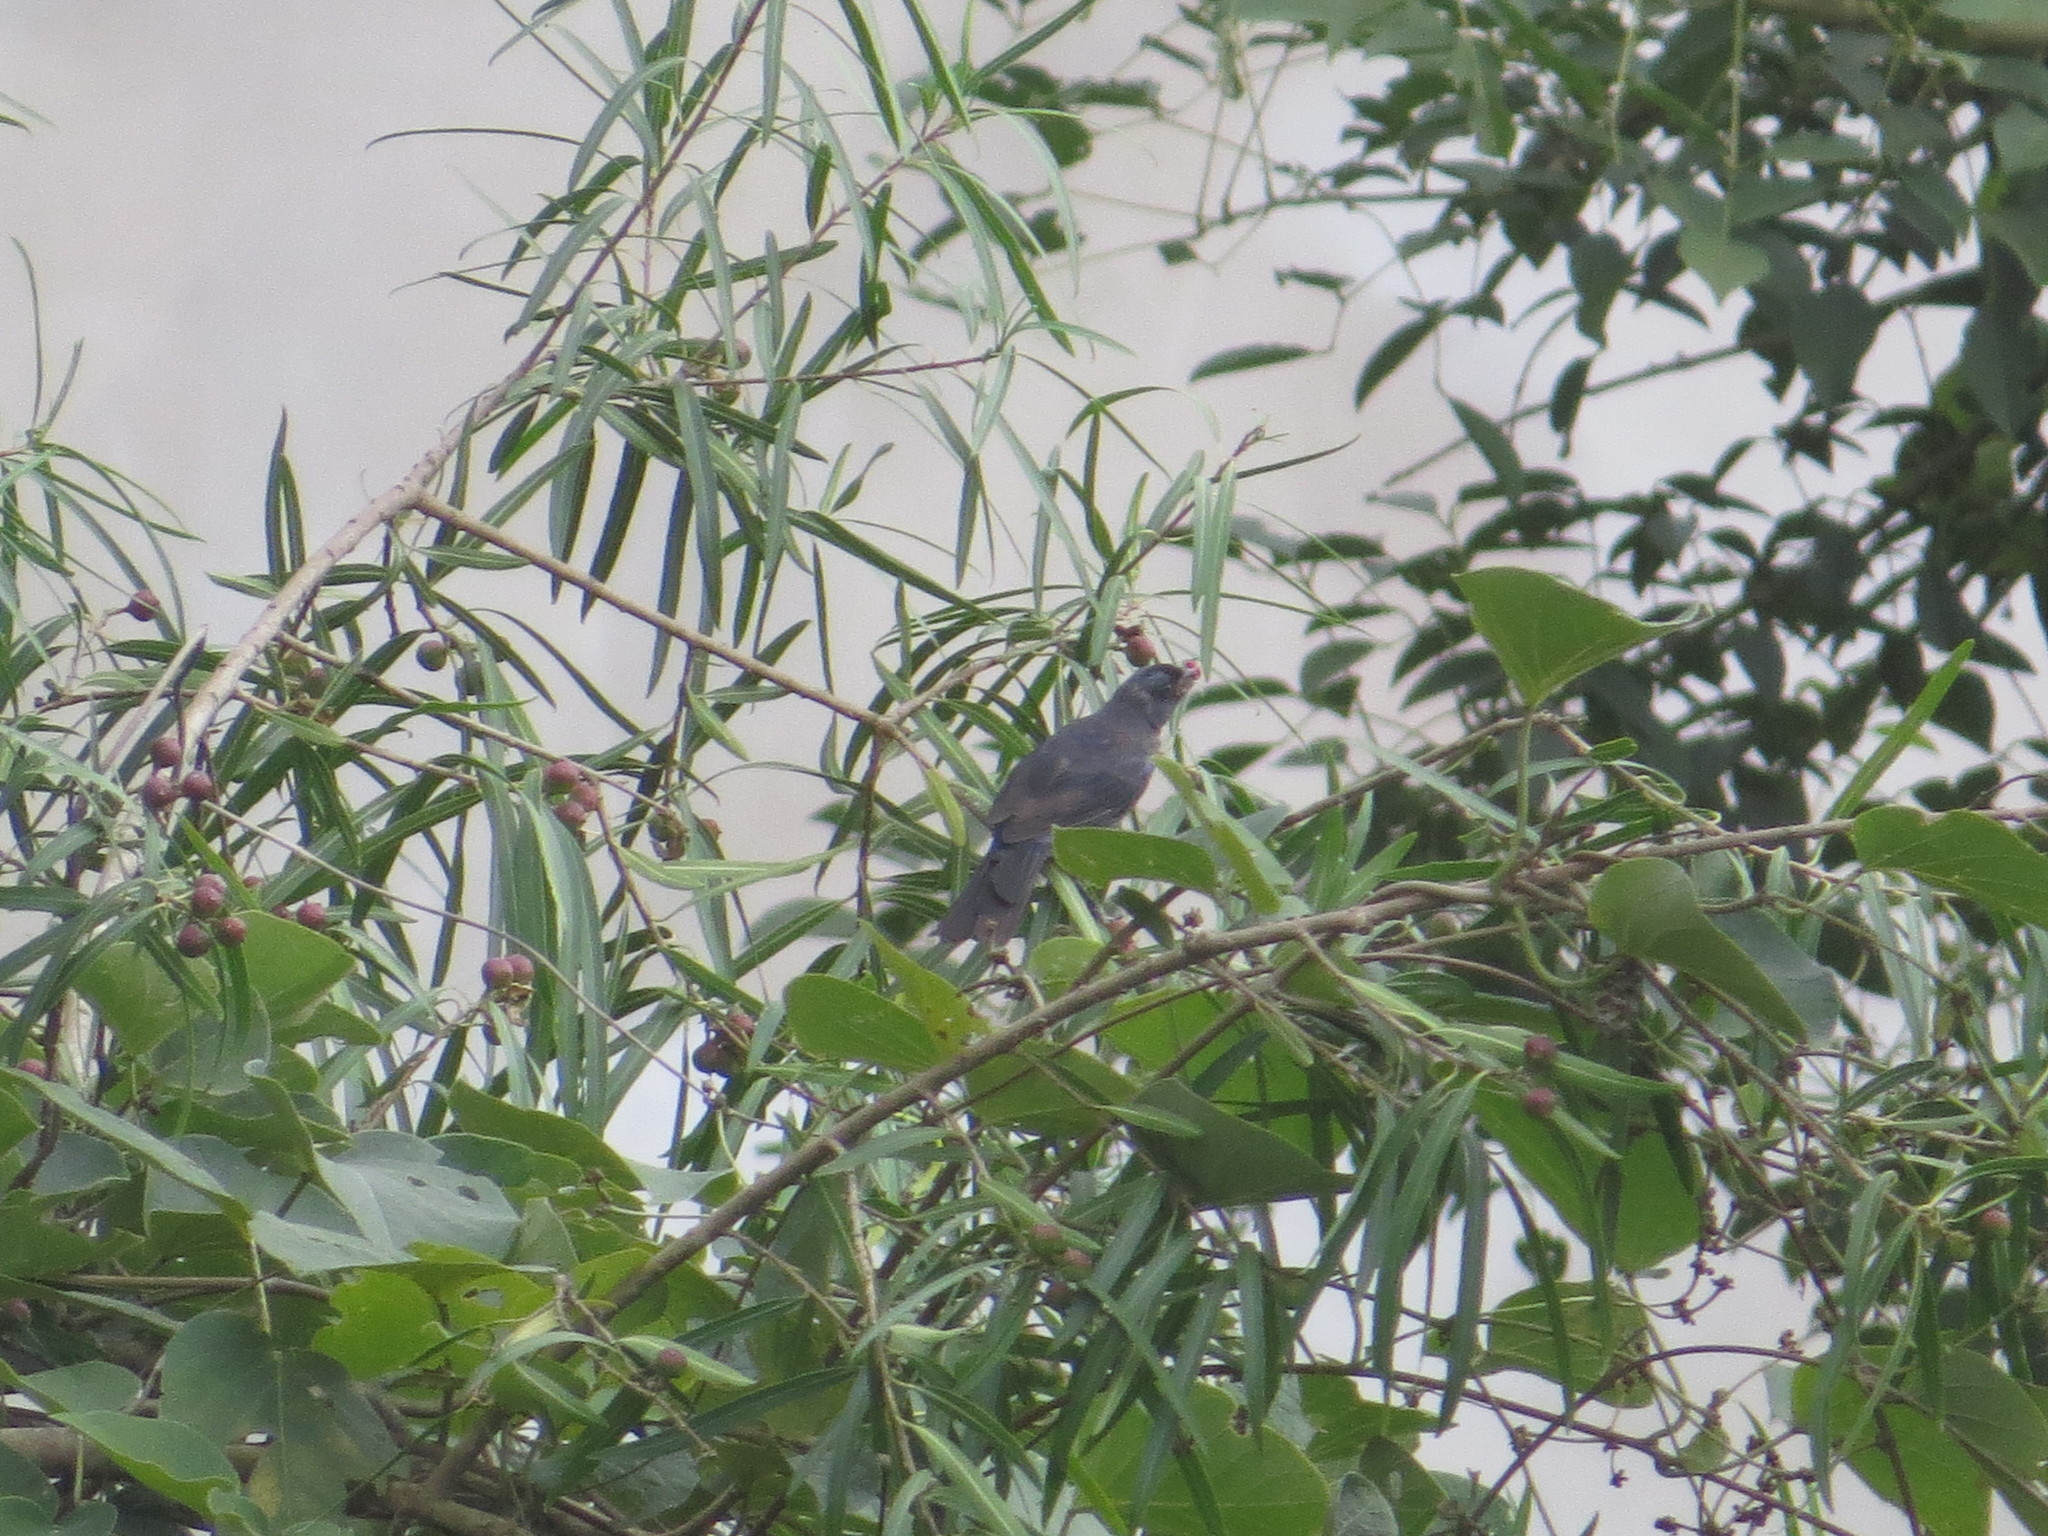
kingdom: Animalia
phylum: Chordata
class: Aves
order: Passeriformes
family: Thraupidae
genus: Stephanophorus
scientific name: Stephanophorus diadematus
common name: Diademed tanager
